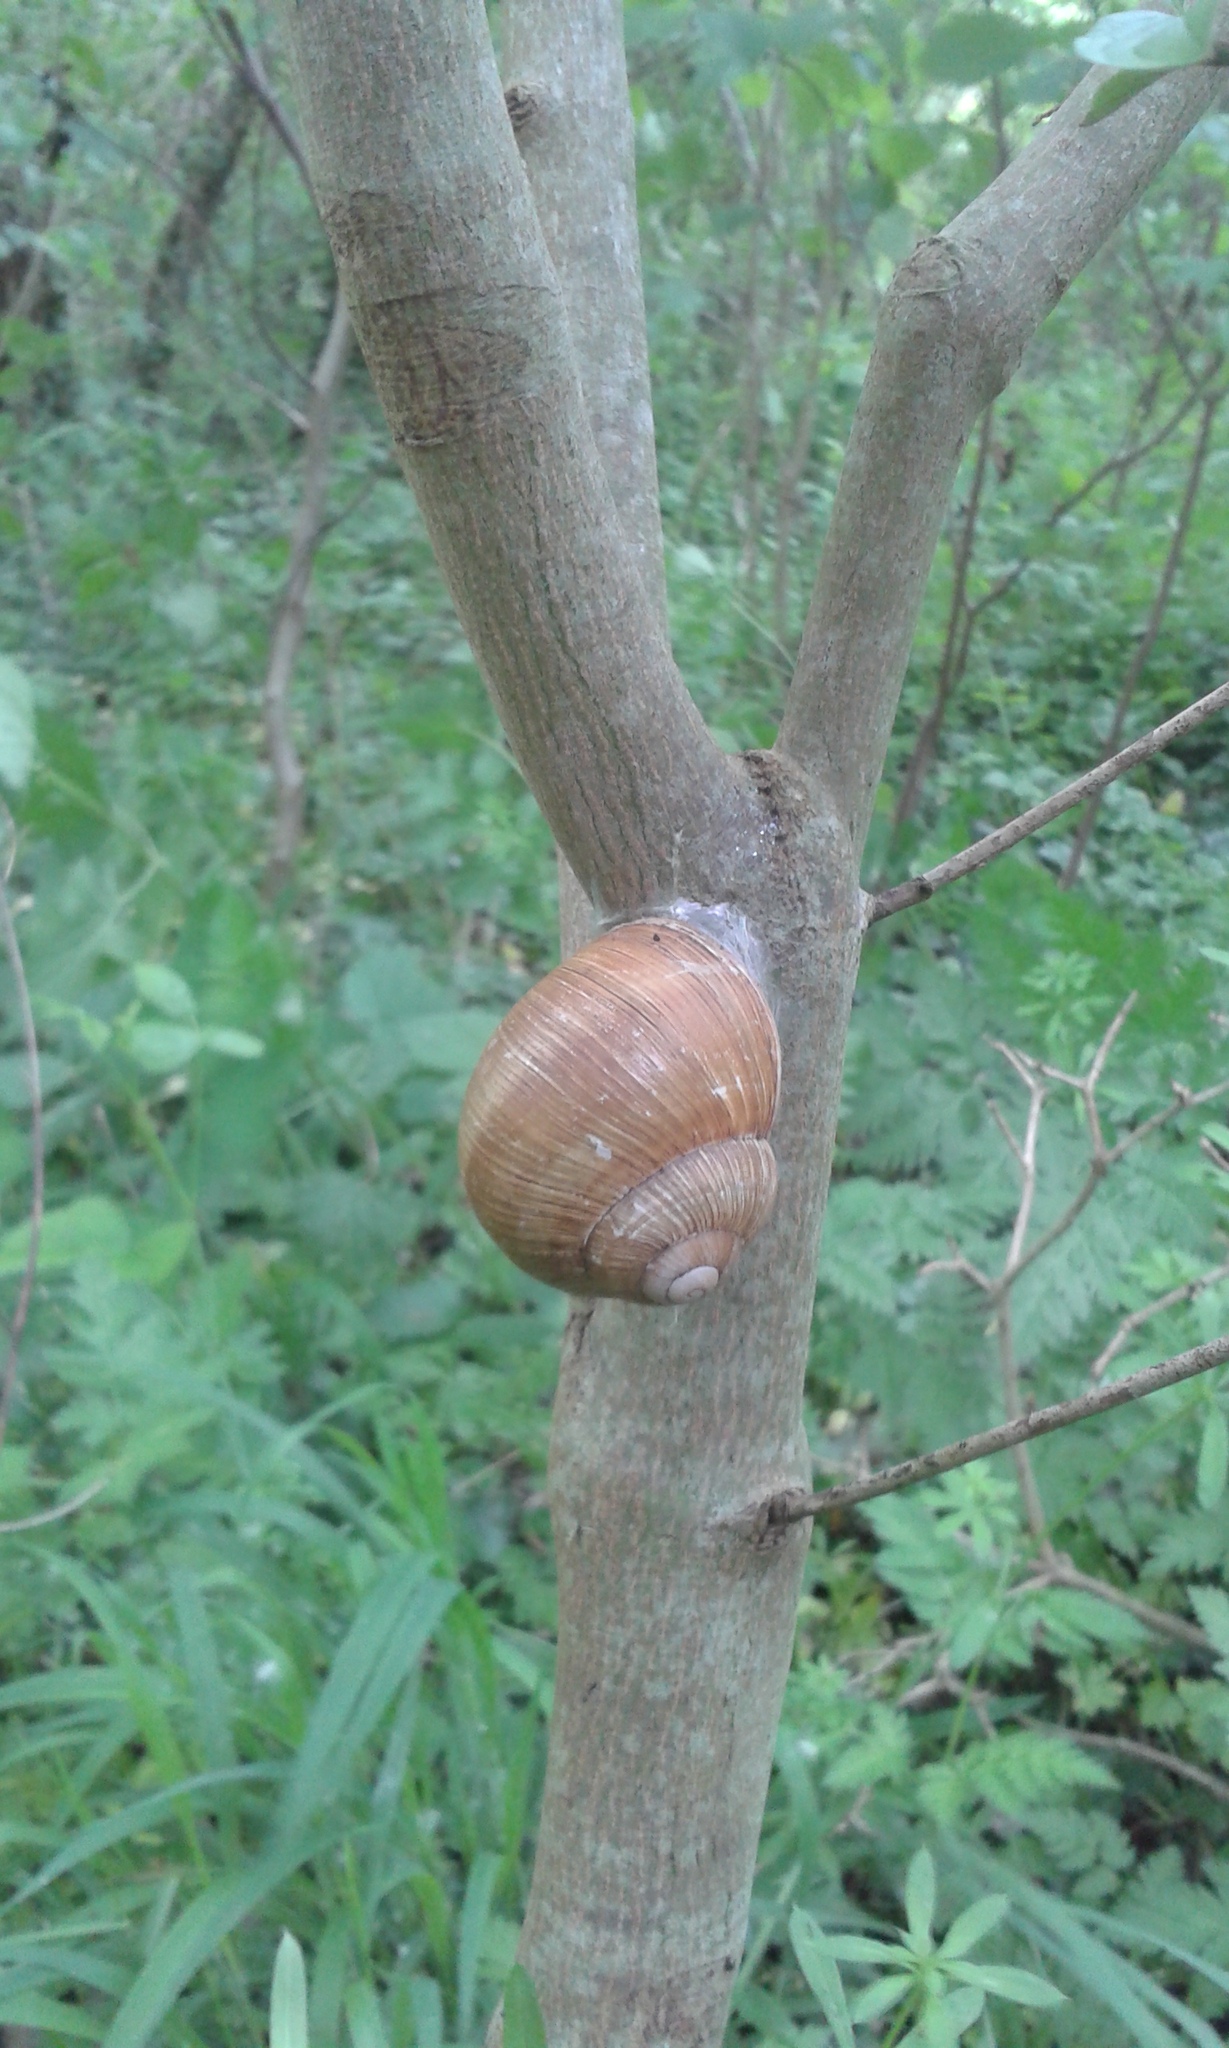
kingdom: Animalia
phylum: Mollusca
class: Gastropoda
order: Stylommatophora
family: Helicidae
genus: Helix
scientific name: Helix pomatia
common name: Roman snail
